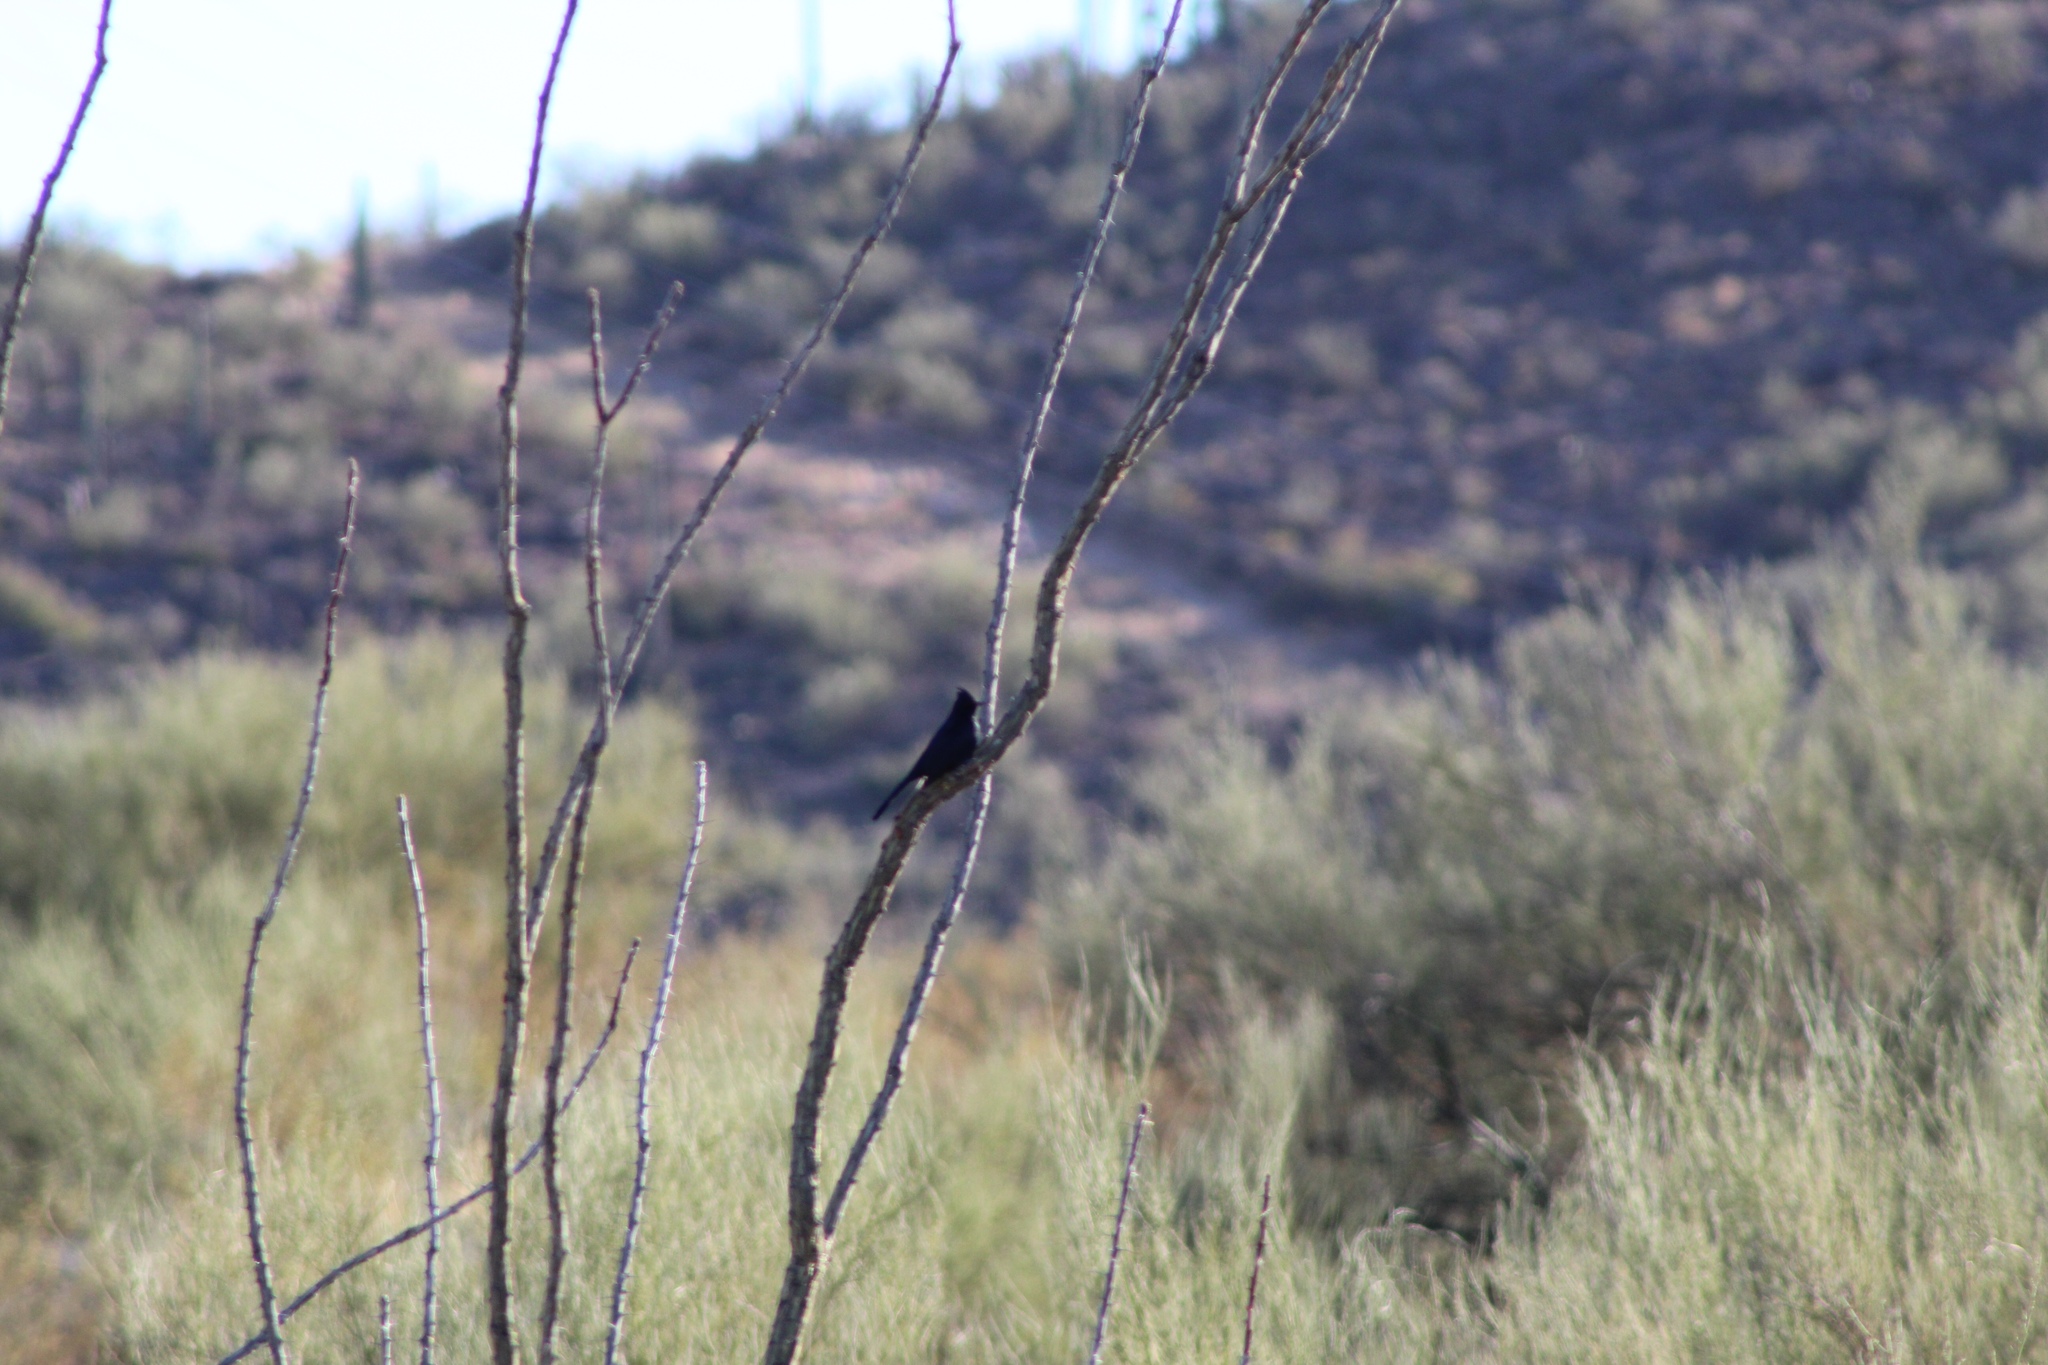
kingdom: Animalia
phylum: Chordata
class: Aves
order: Passeriformes
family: Ptilogonatidae
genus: Phainopepla
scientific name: Phainopepla nitens
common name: Phainopepla
